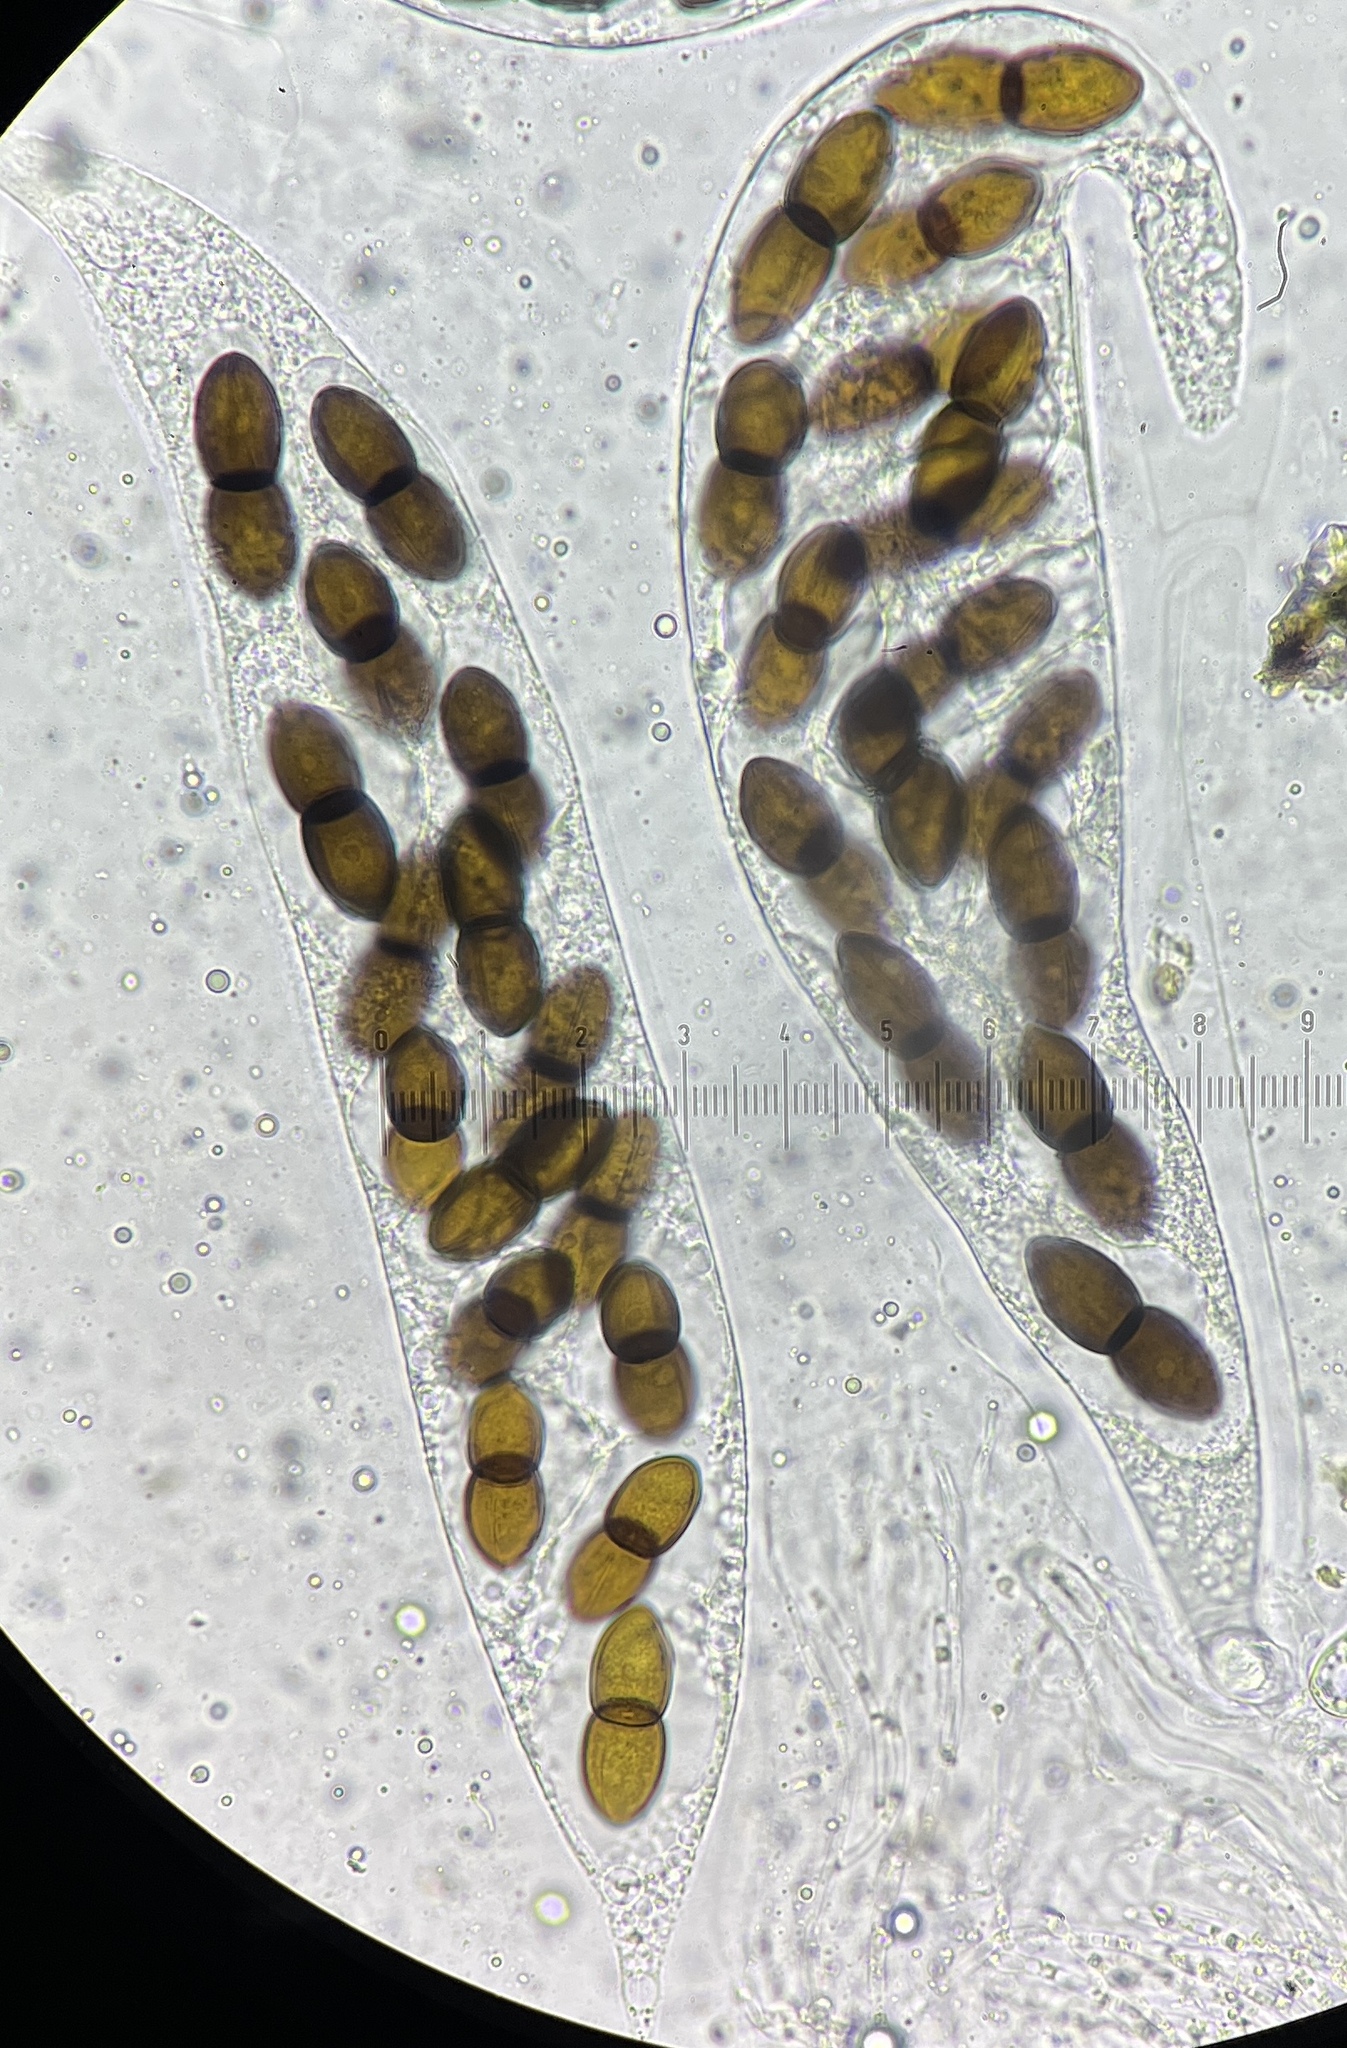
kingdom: Fungi
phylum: Ascomycota
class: Dothideomycetes
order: Pleosporales
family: Delitschiaceae
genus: Delitschia
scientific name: Delitschia polyspora
